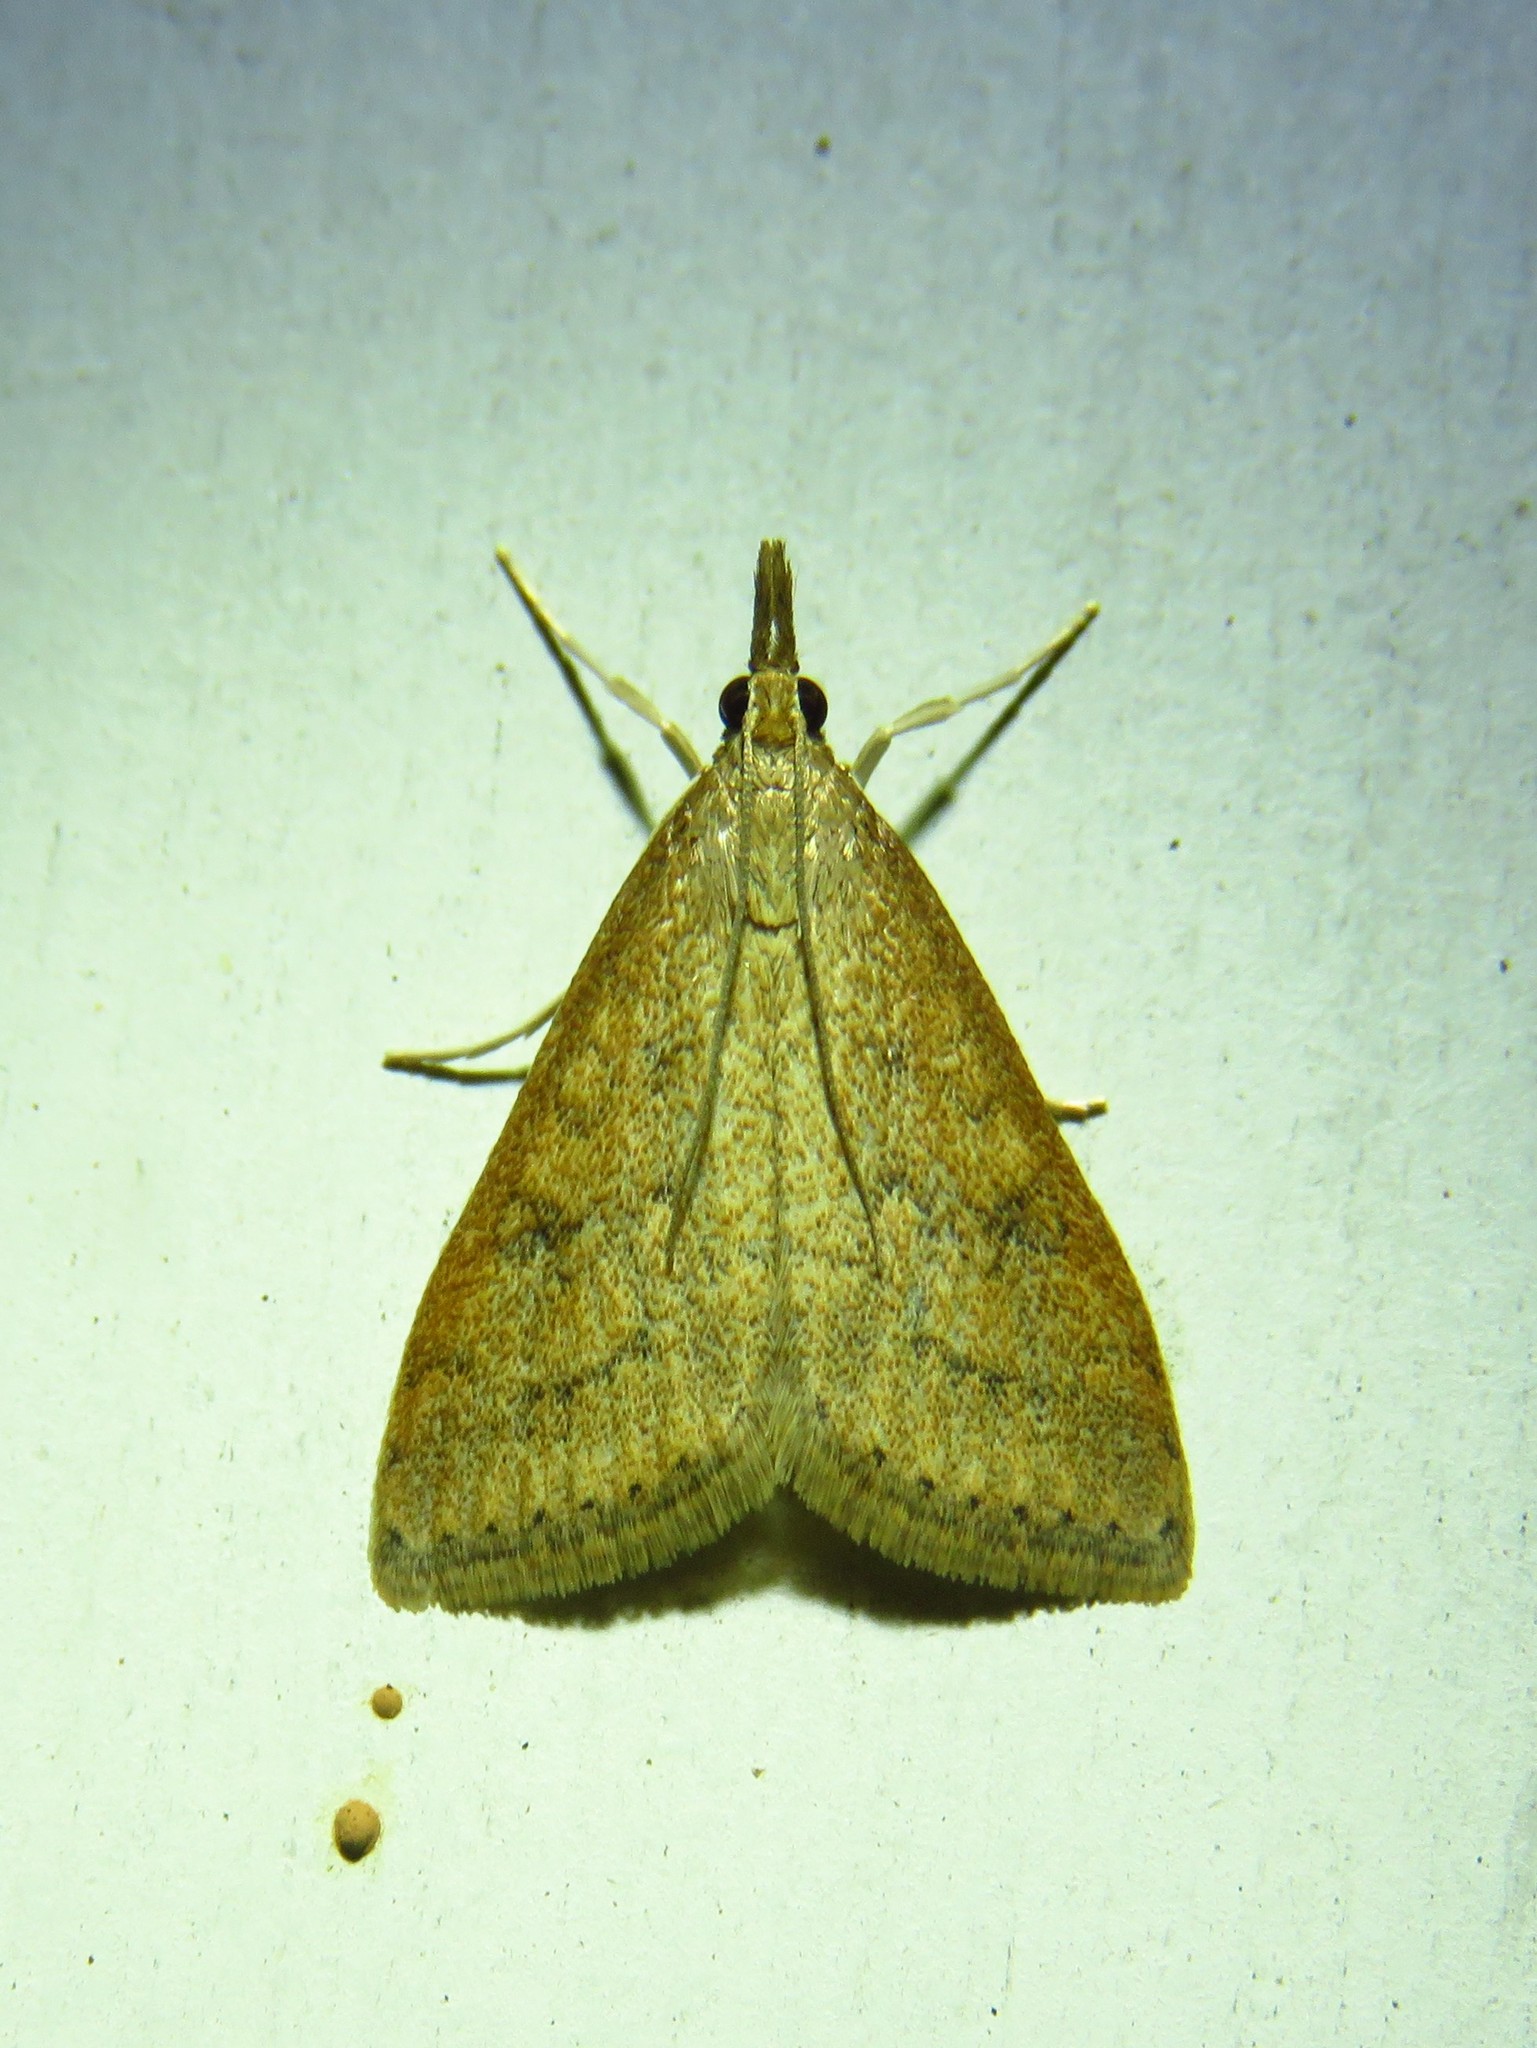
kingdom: Animalia
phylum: Arthropoda
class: Insecta
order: Lepidoptera
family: Crambidae
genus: Udea
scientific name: Udea rubigalis
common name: Celery leaftier moth
